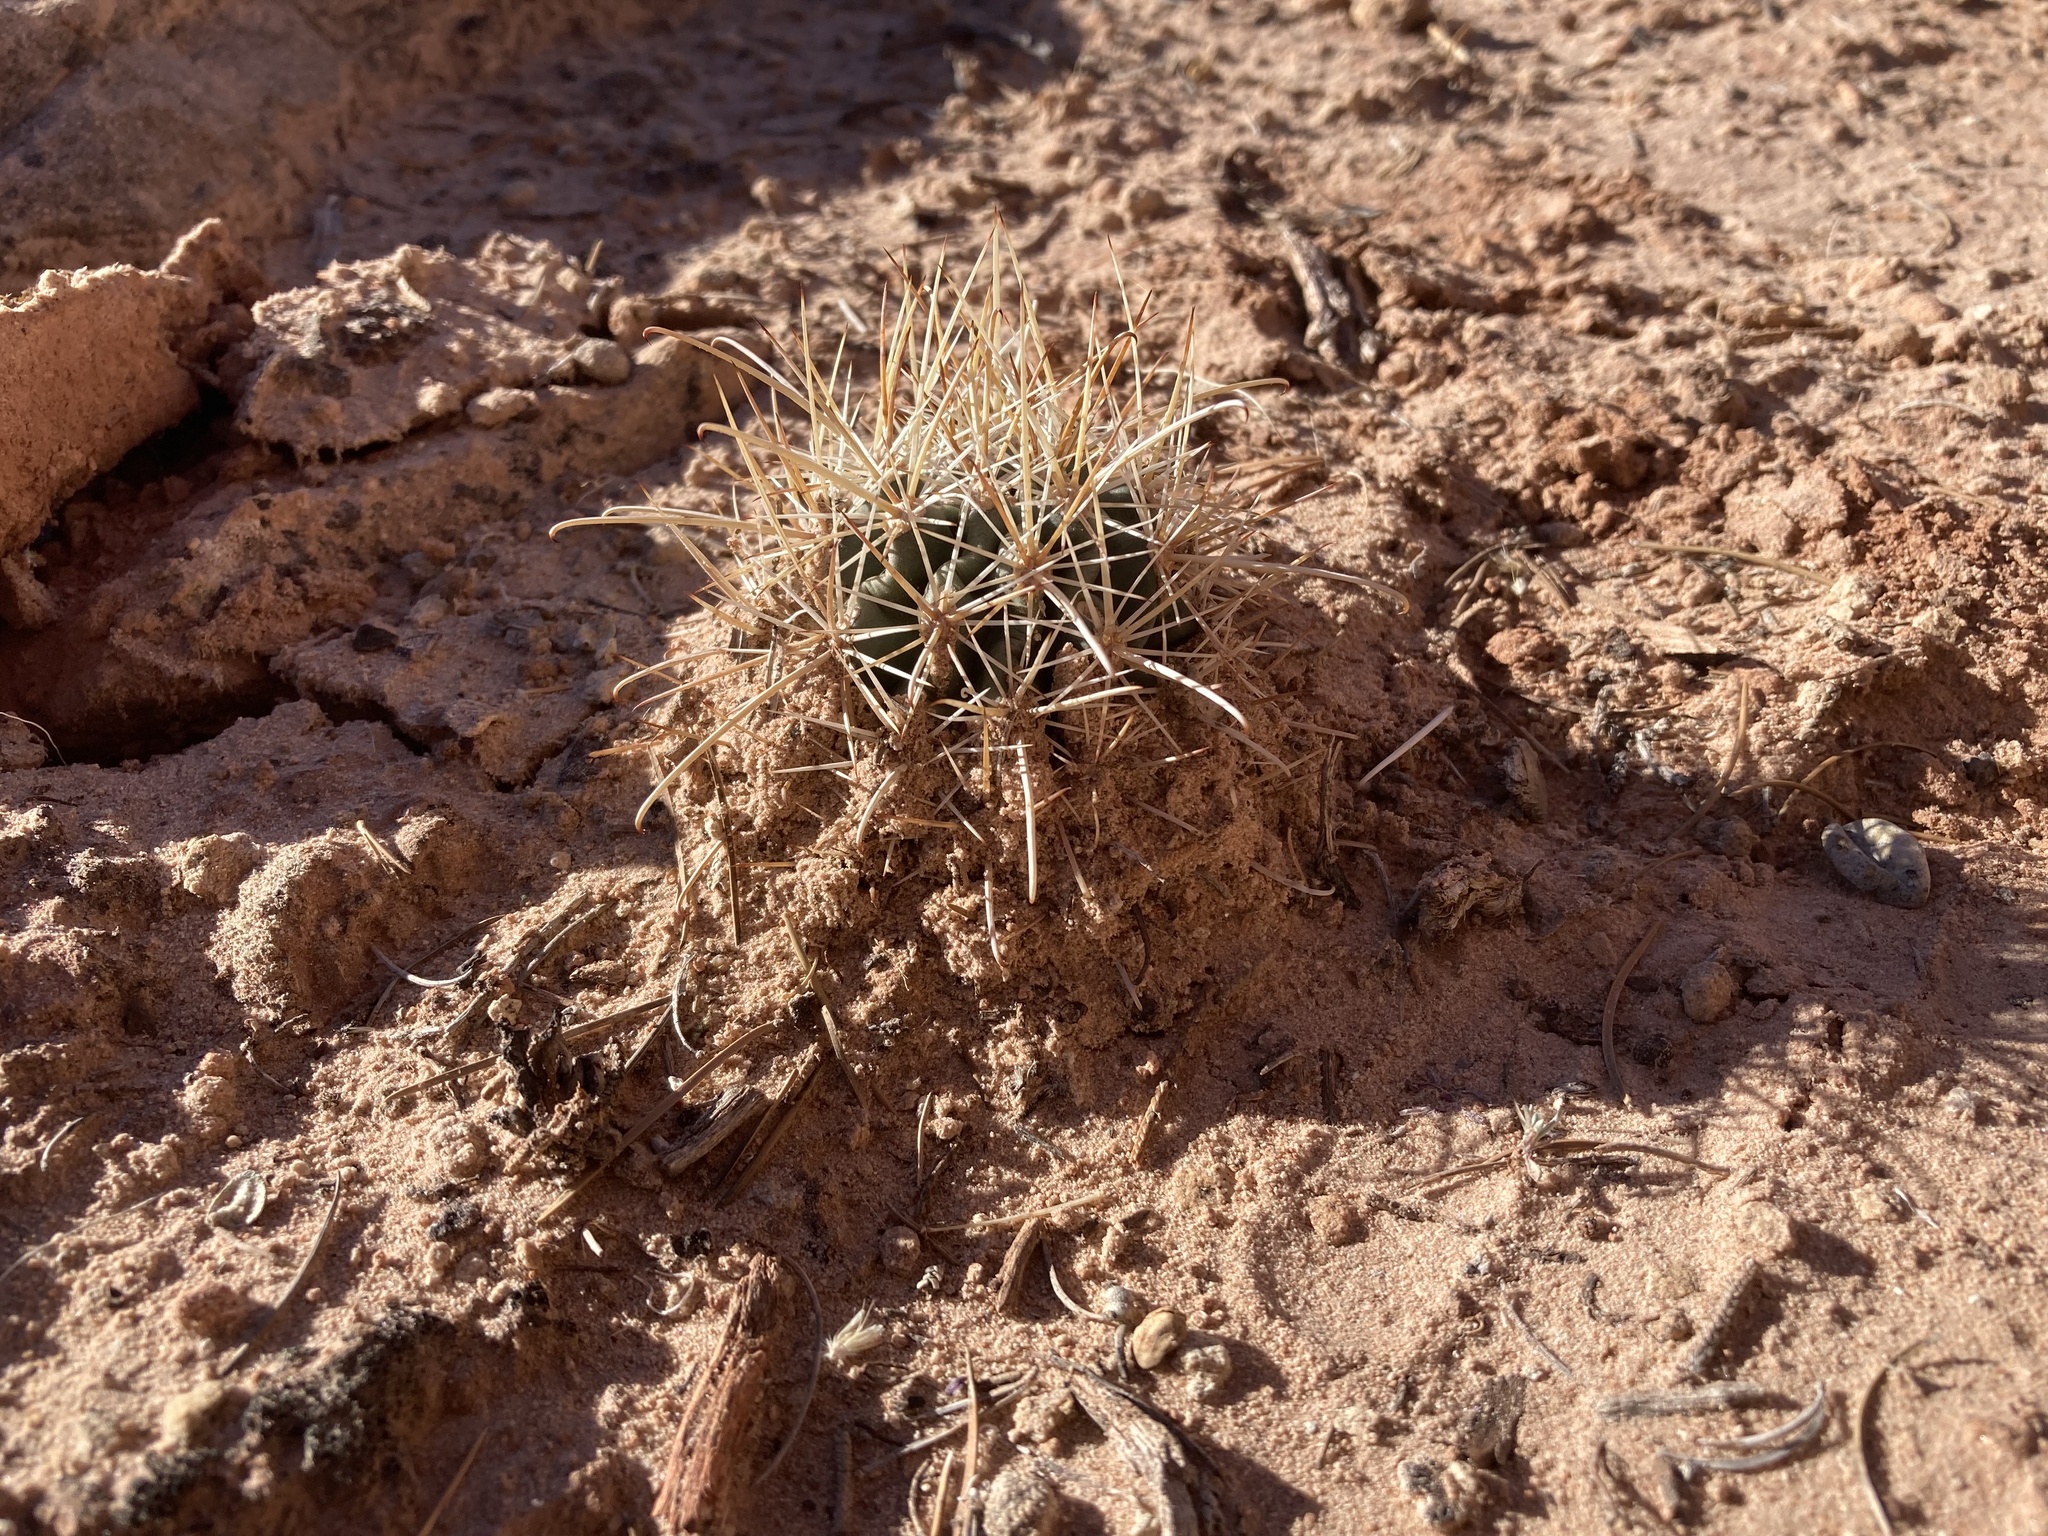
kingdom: Plantae
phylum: Tracheophyta
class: Magnoliopsida
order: Caryophyllales
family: Cactaceae
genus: Sclerocactus
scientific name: Sclerocactus parviflorus
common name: Small-flower fishhook cactus
